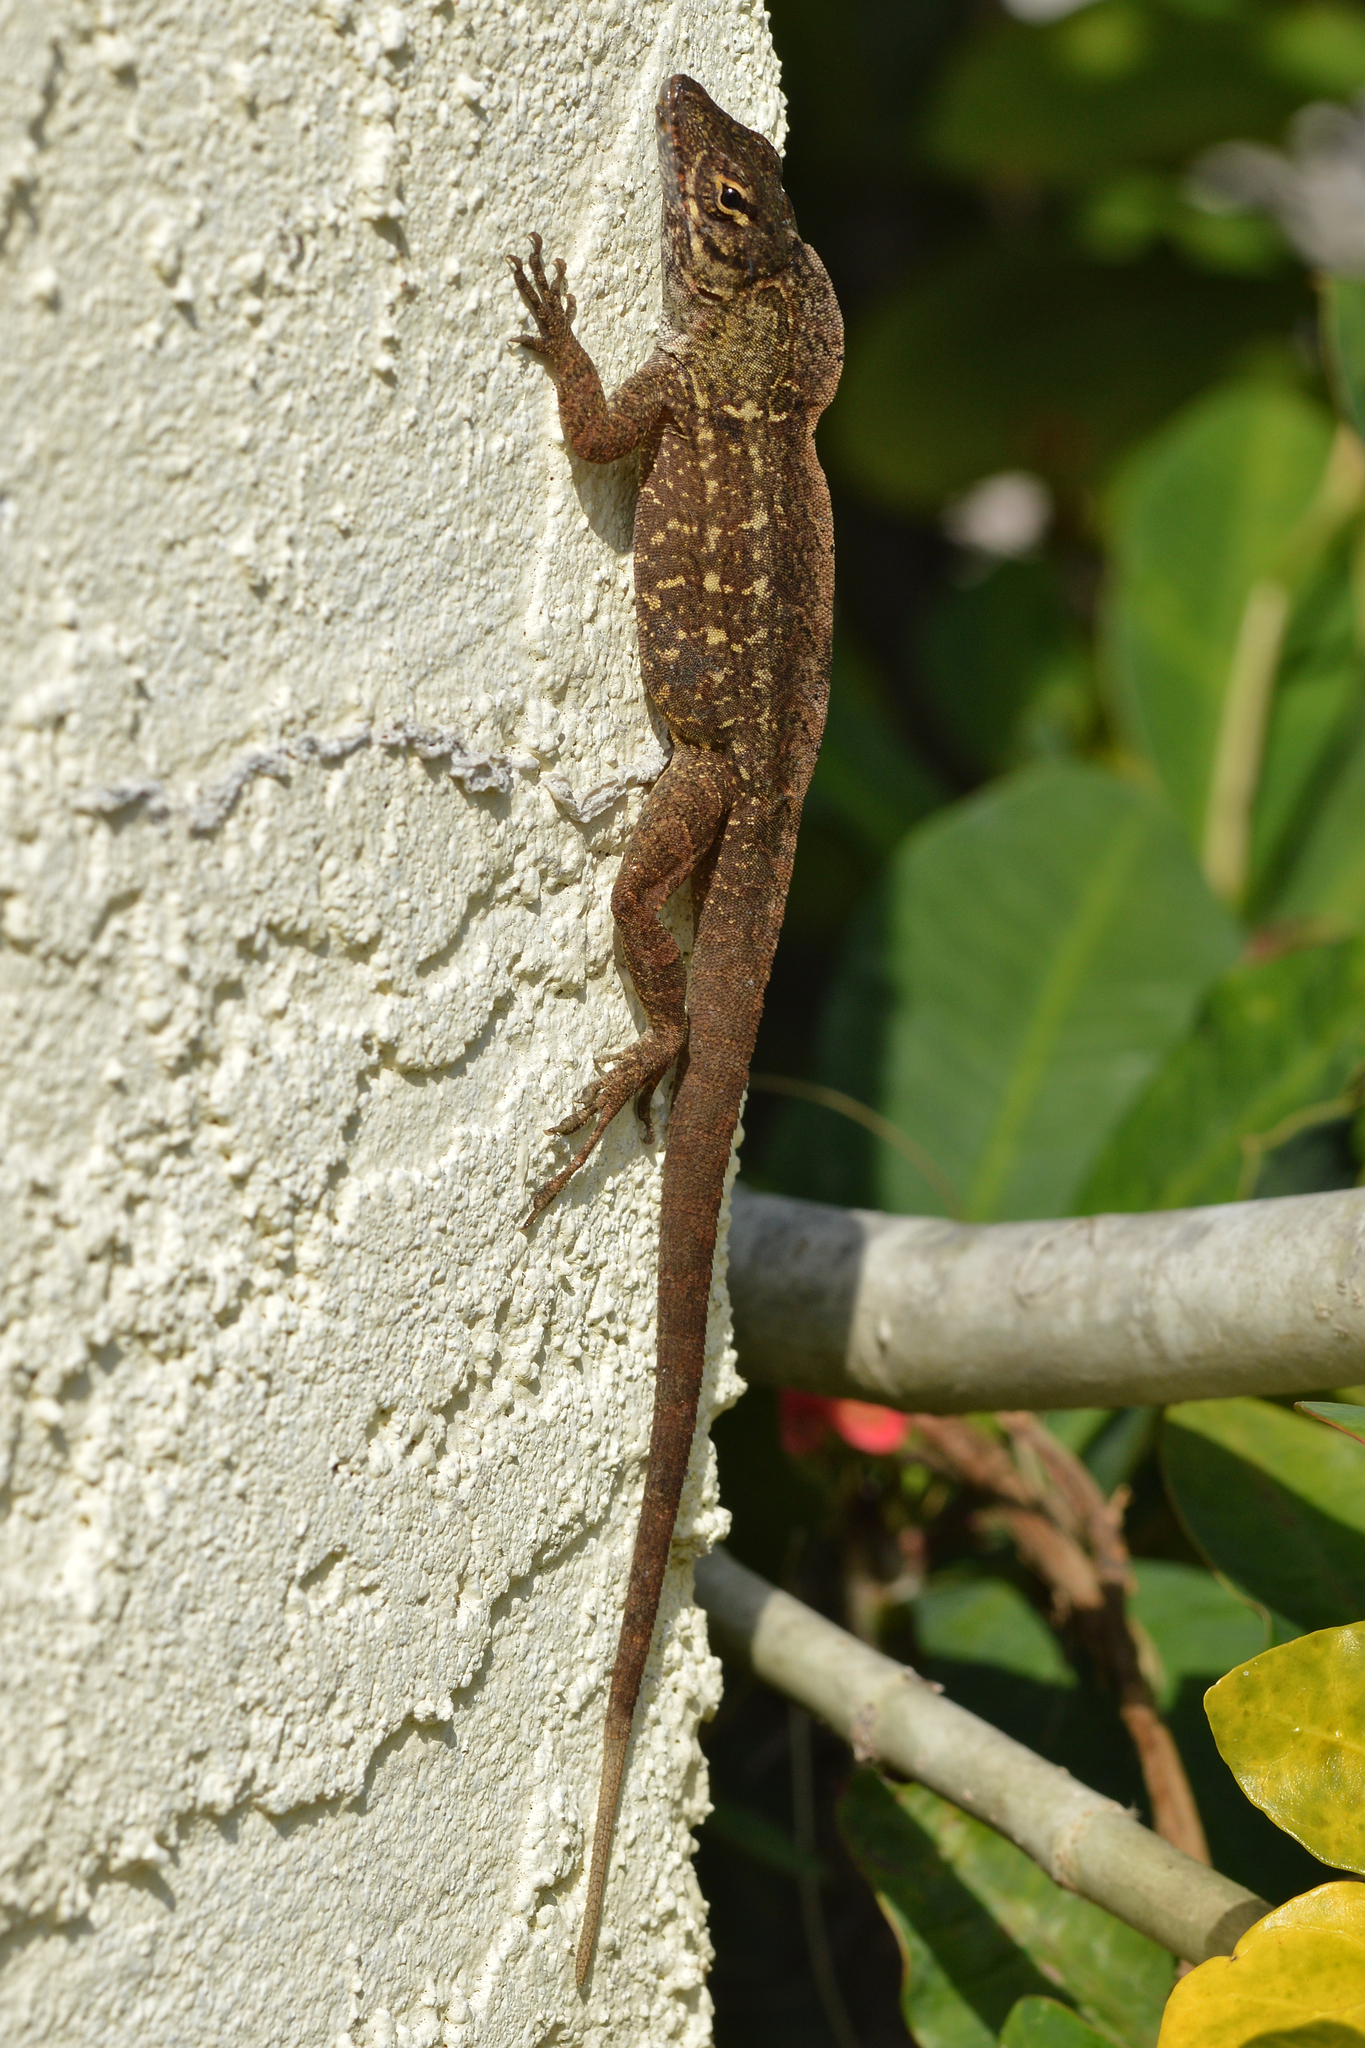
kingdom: Animalia
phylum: Chordata
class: Squamata
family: Dactyloidae
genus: Anolis
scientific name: Anolis sagrei
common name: Brown anole
